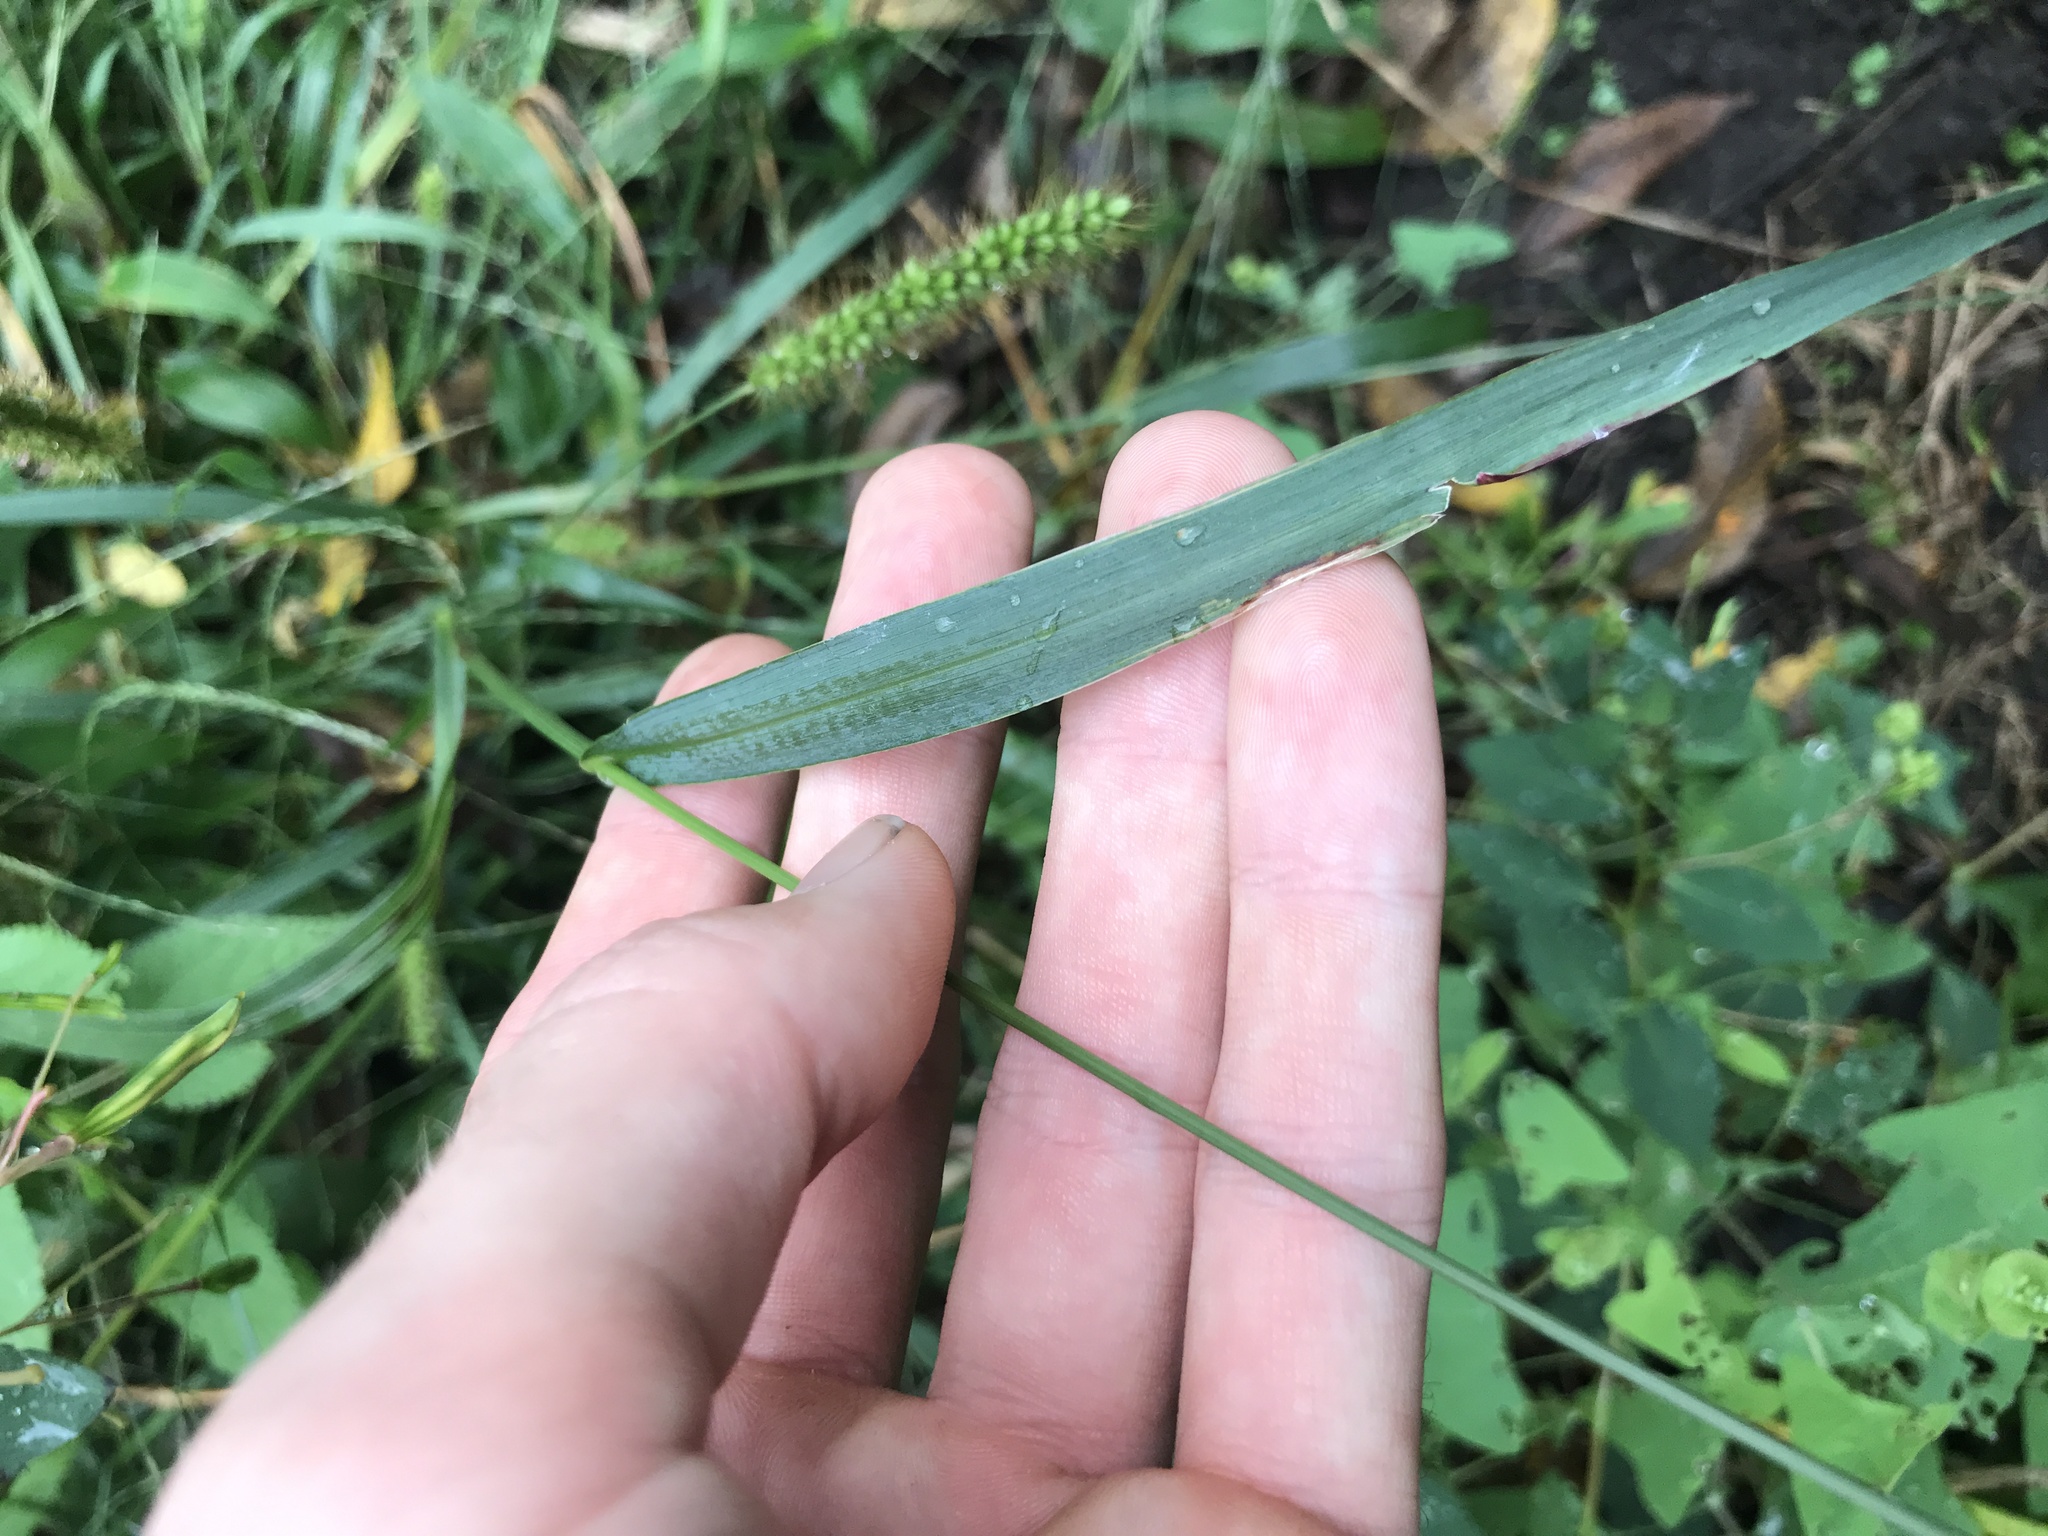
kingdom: Plantae
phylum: Tracheophyta
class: Liliopsida
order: Poales
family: Poaceae
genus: Setaria
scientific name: Setaria pumila
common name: Yellow bristle-grass
